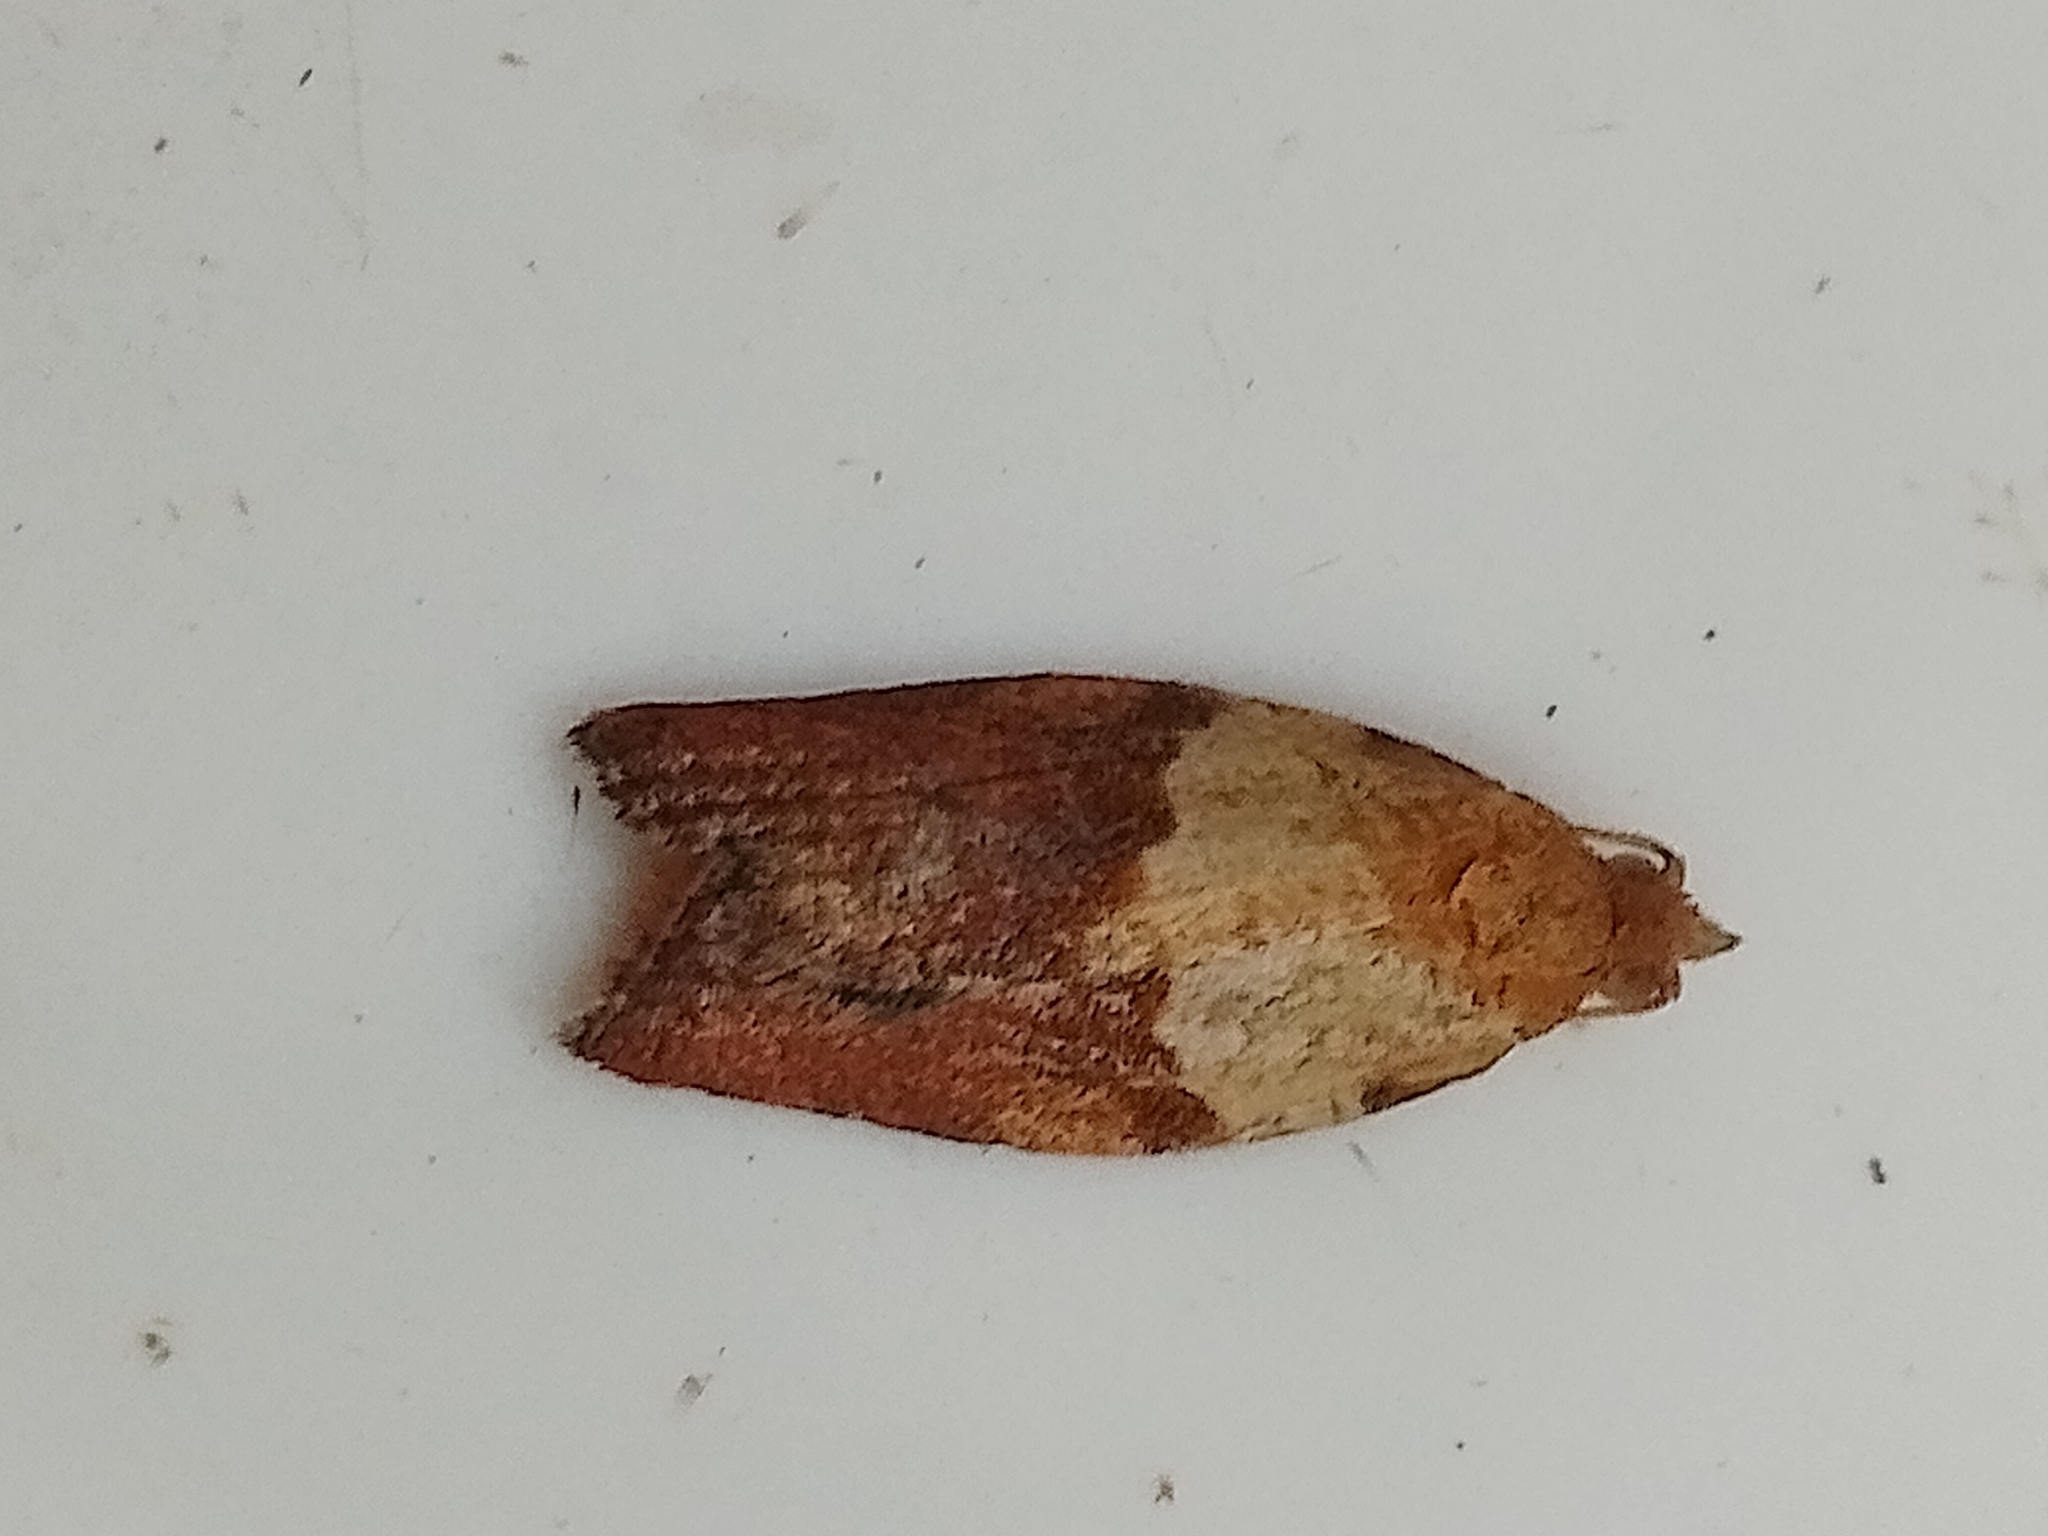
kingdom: Animalia
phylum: Arthropoda
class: Insecta
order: Lepidoptera
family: Tortricidae
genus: Epiphyas
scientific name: Epiphyas postvittana
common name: Light brown apple moth
